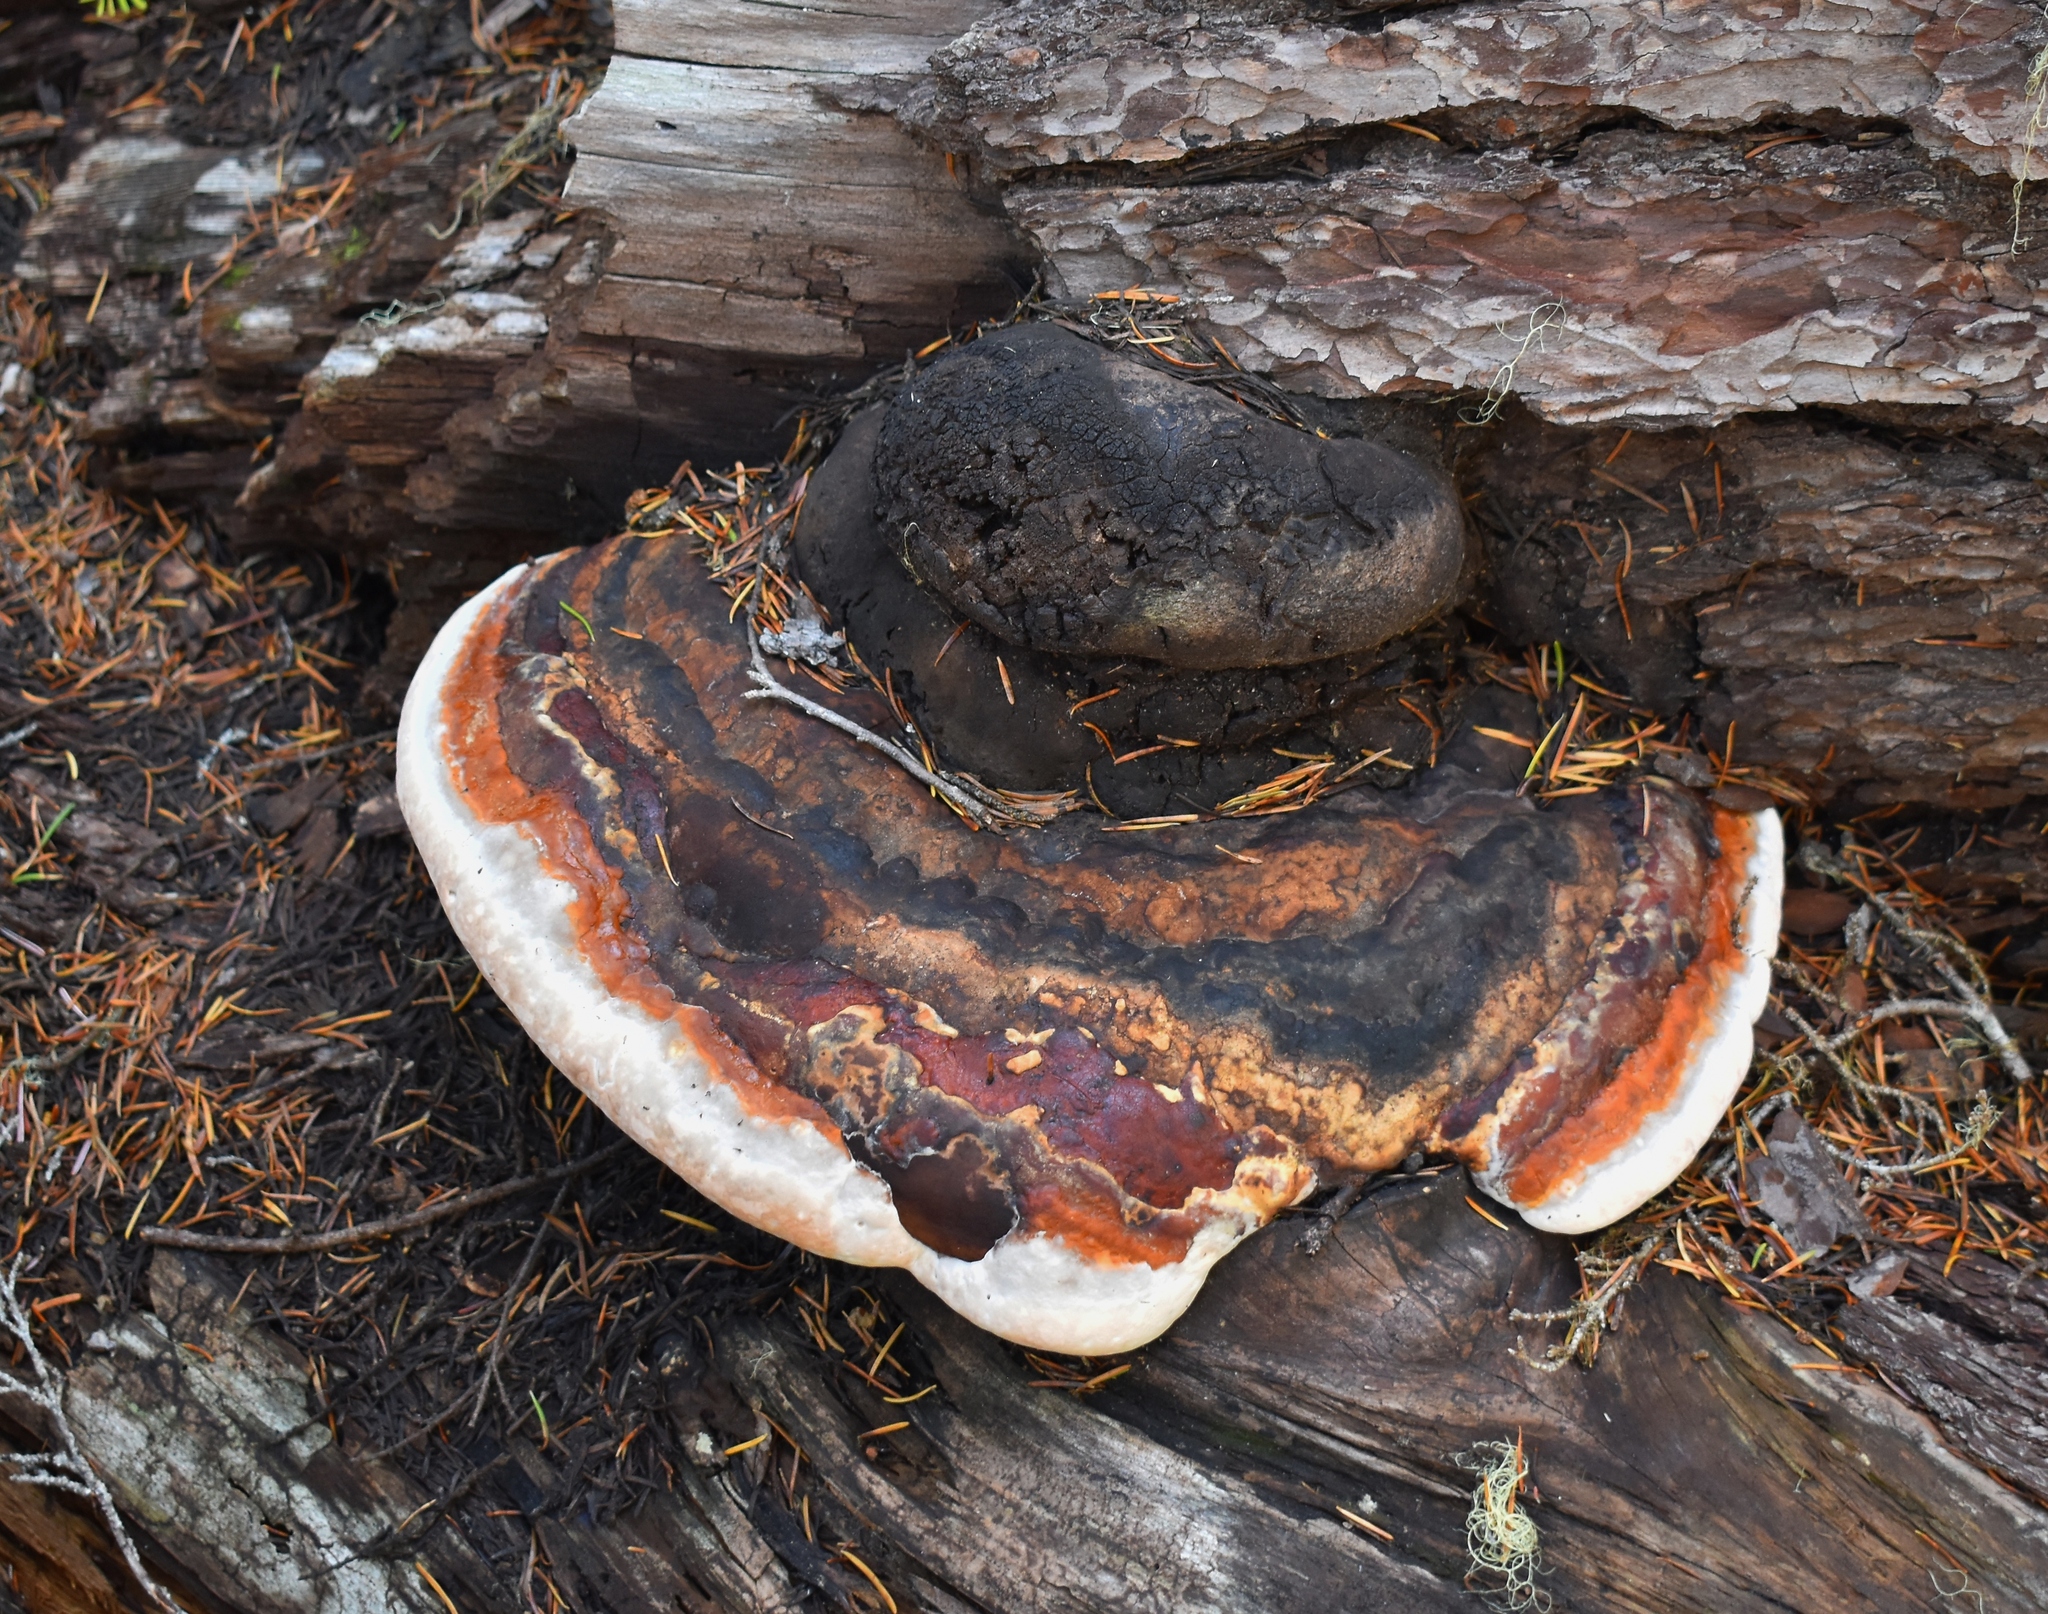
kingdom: Fungi
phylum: Basidiomycota
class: Agaricomycetes
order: Polyporales
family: Fomitopsidaceae
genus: Fomitopsis
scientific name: Fomitopsis mounceae
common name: Northern red belt
